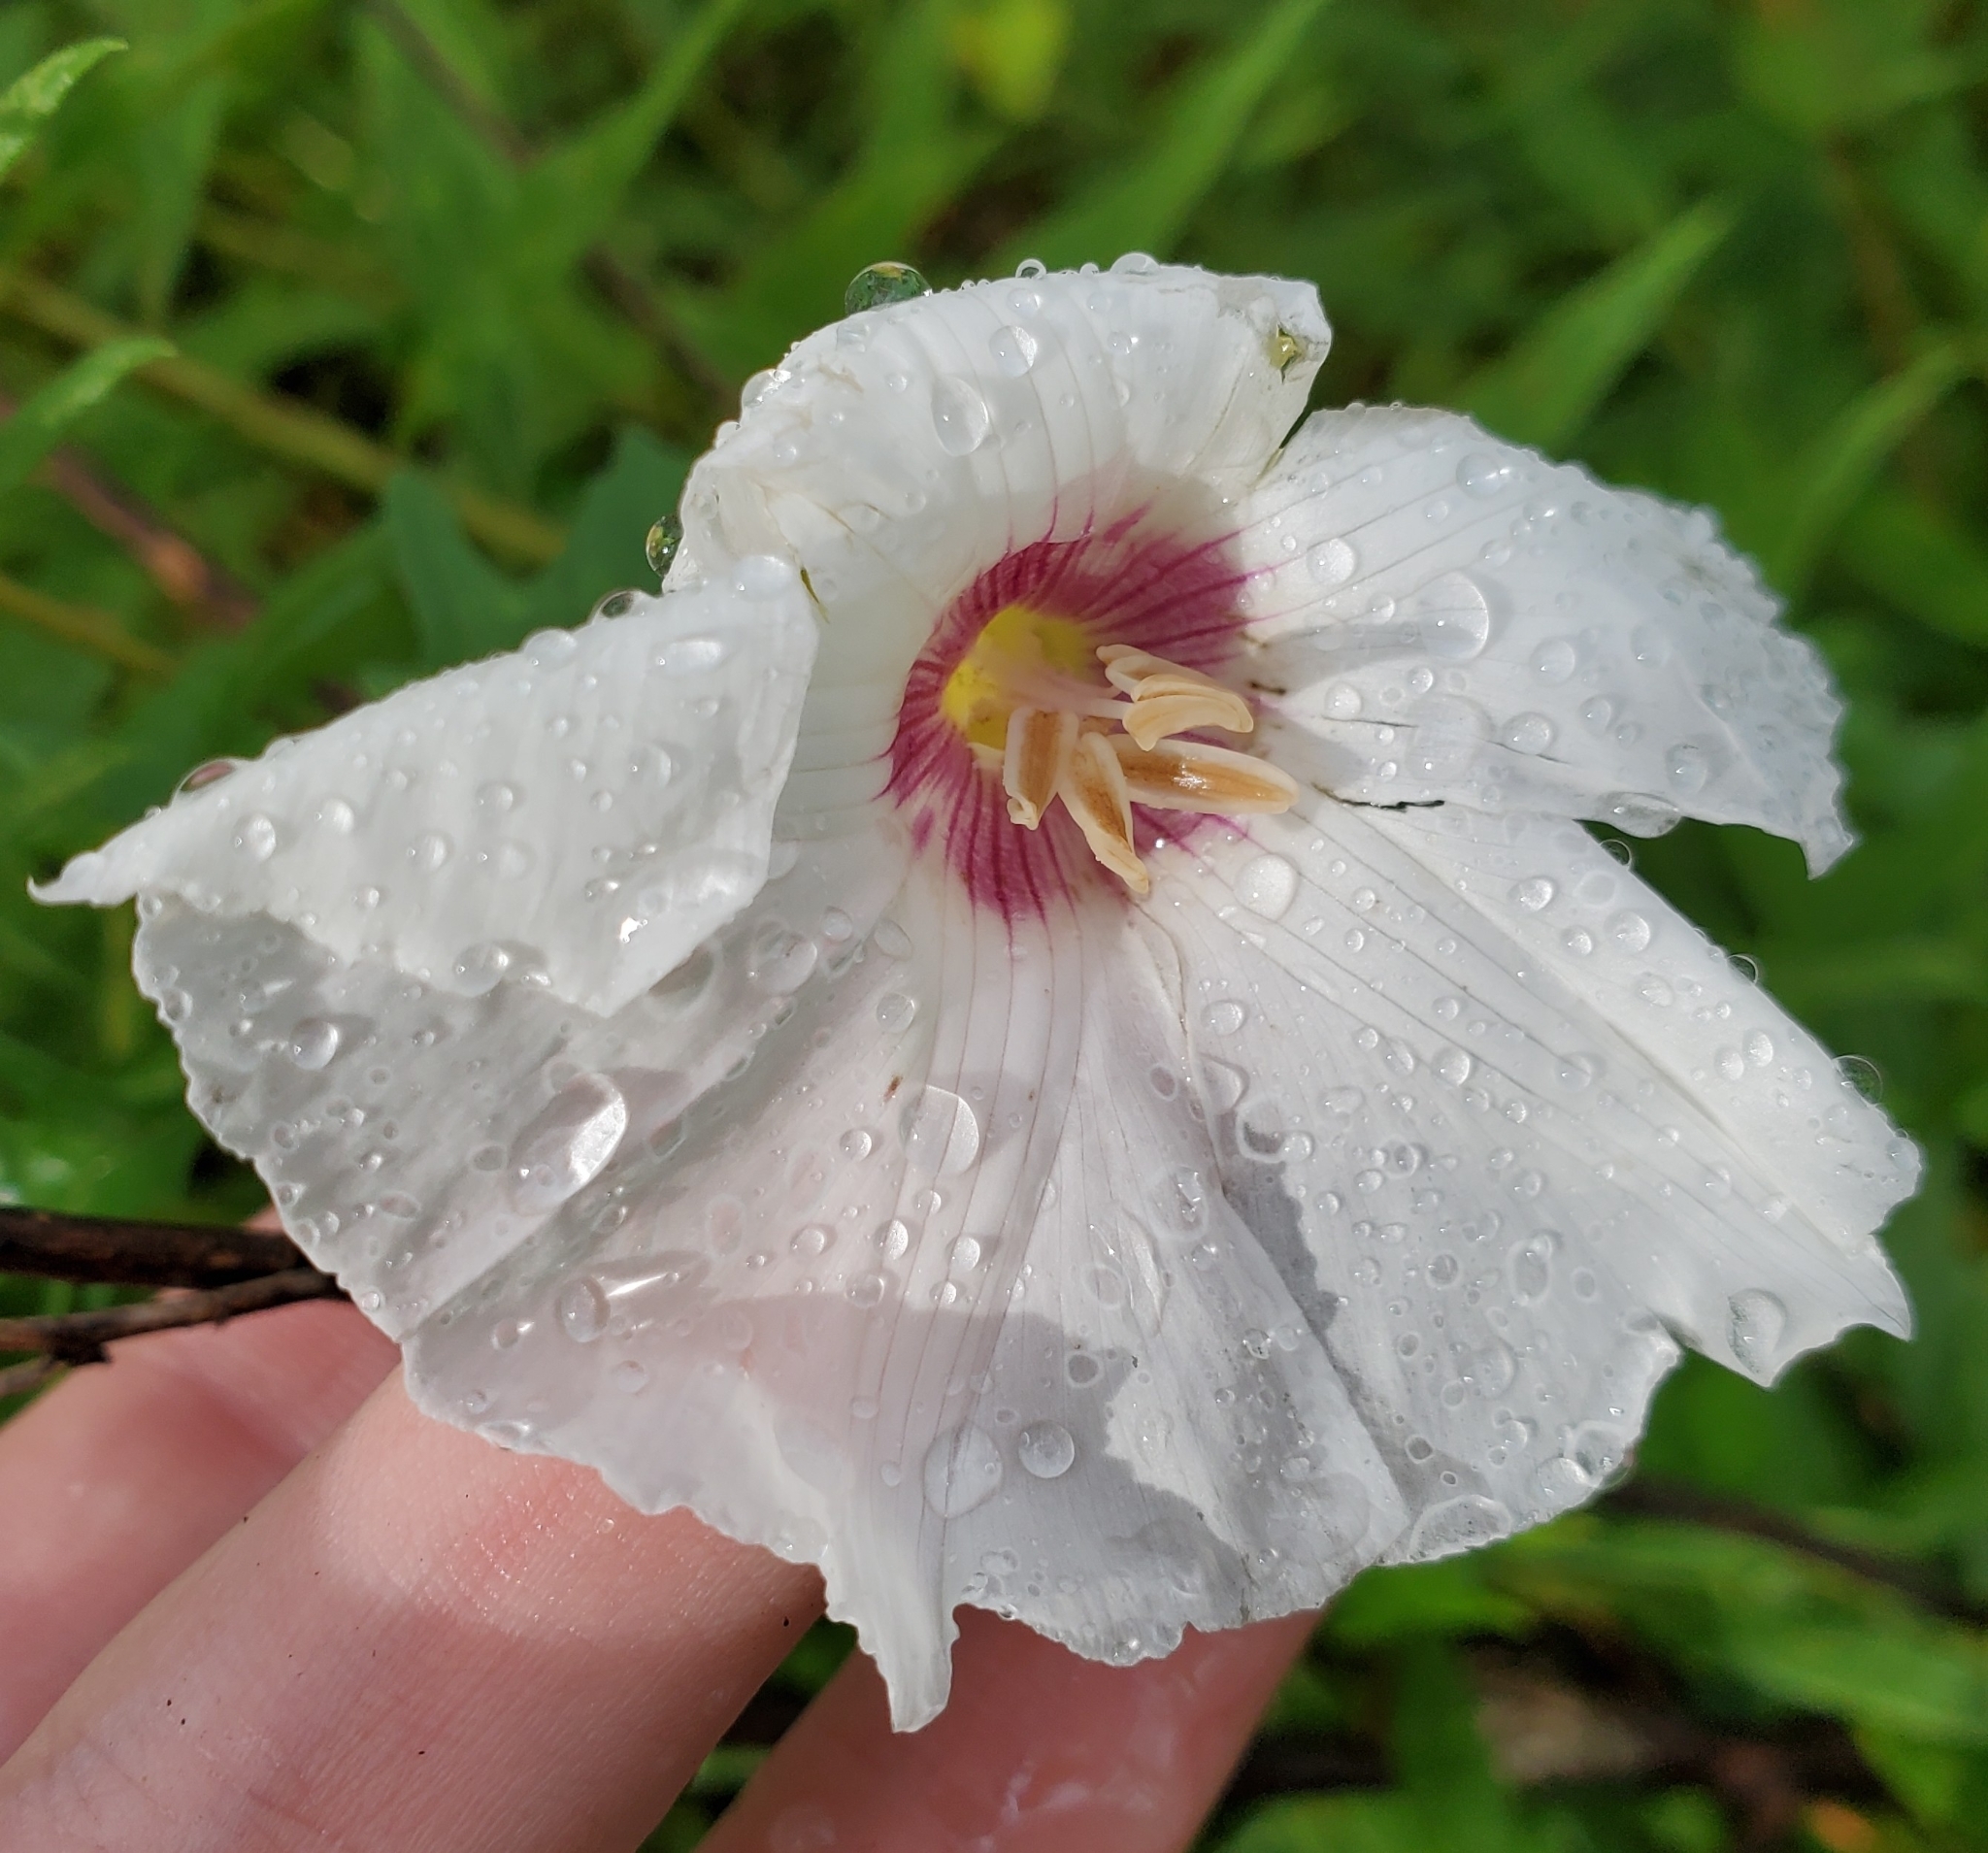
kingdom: Plantae
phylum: Tracheophyta
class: Magnoliopsida
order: Solanales
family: Convolvulaceae
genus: Distimake
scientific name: Distimake dissectus
